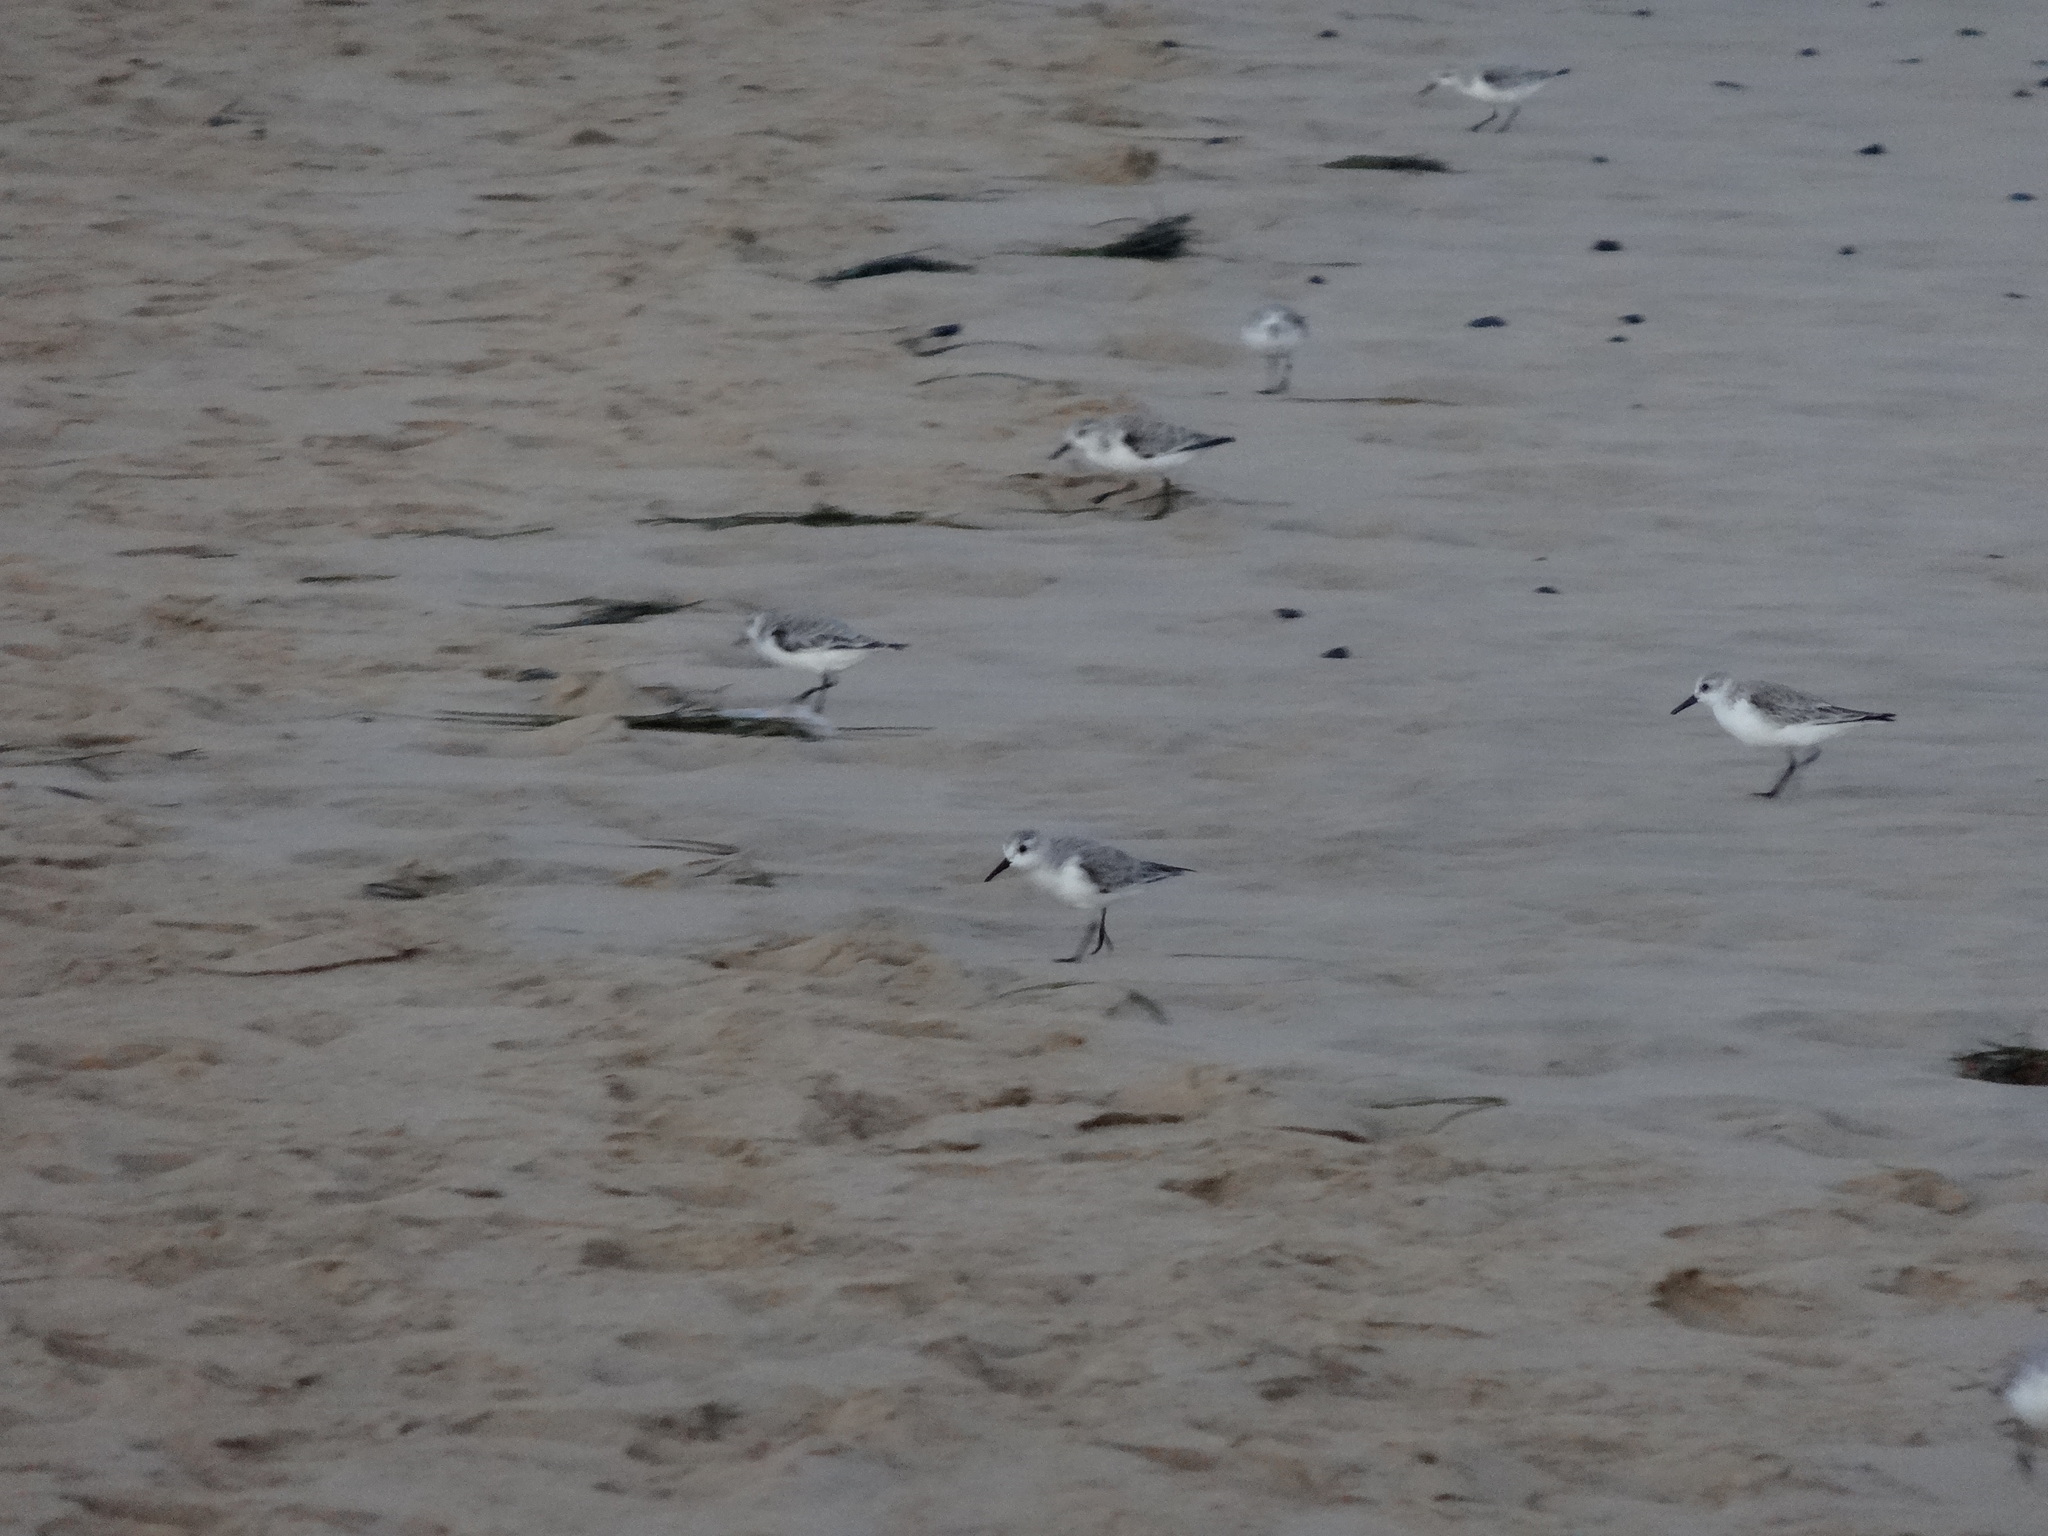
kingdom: Animalia
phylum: Chordata
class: Aves
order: Charadriiformes
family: Scolopacidae
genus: Calidris
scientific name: Calidris alba
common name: Sanderling
